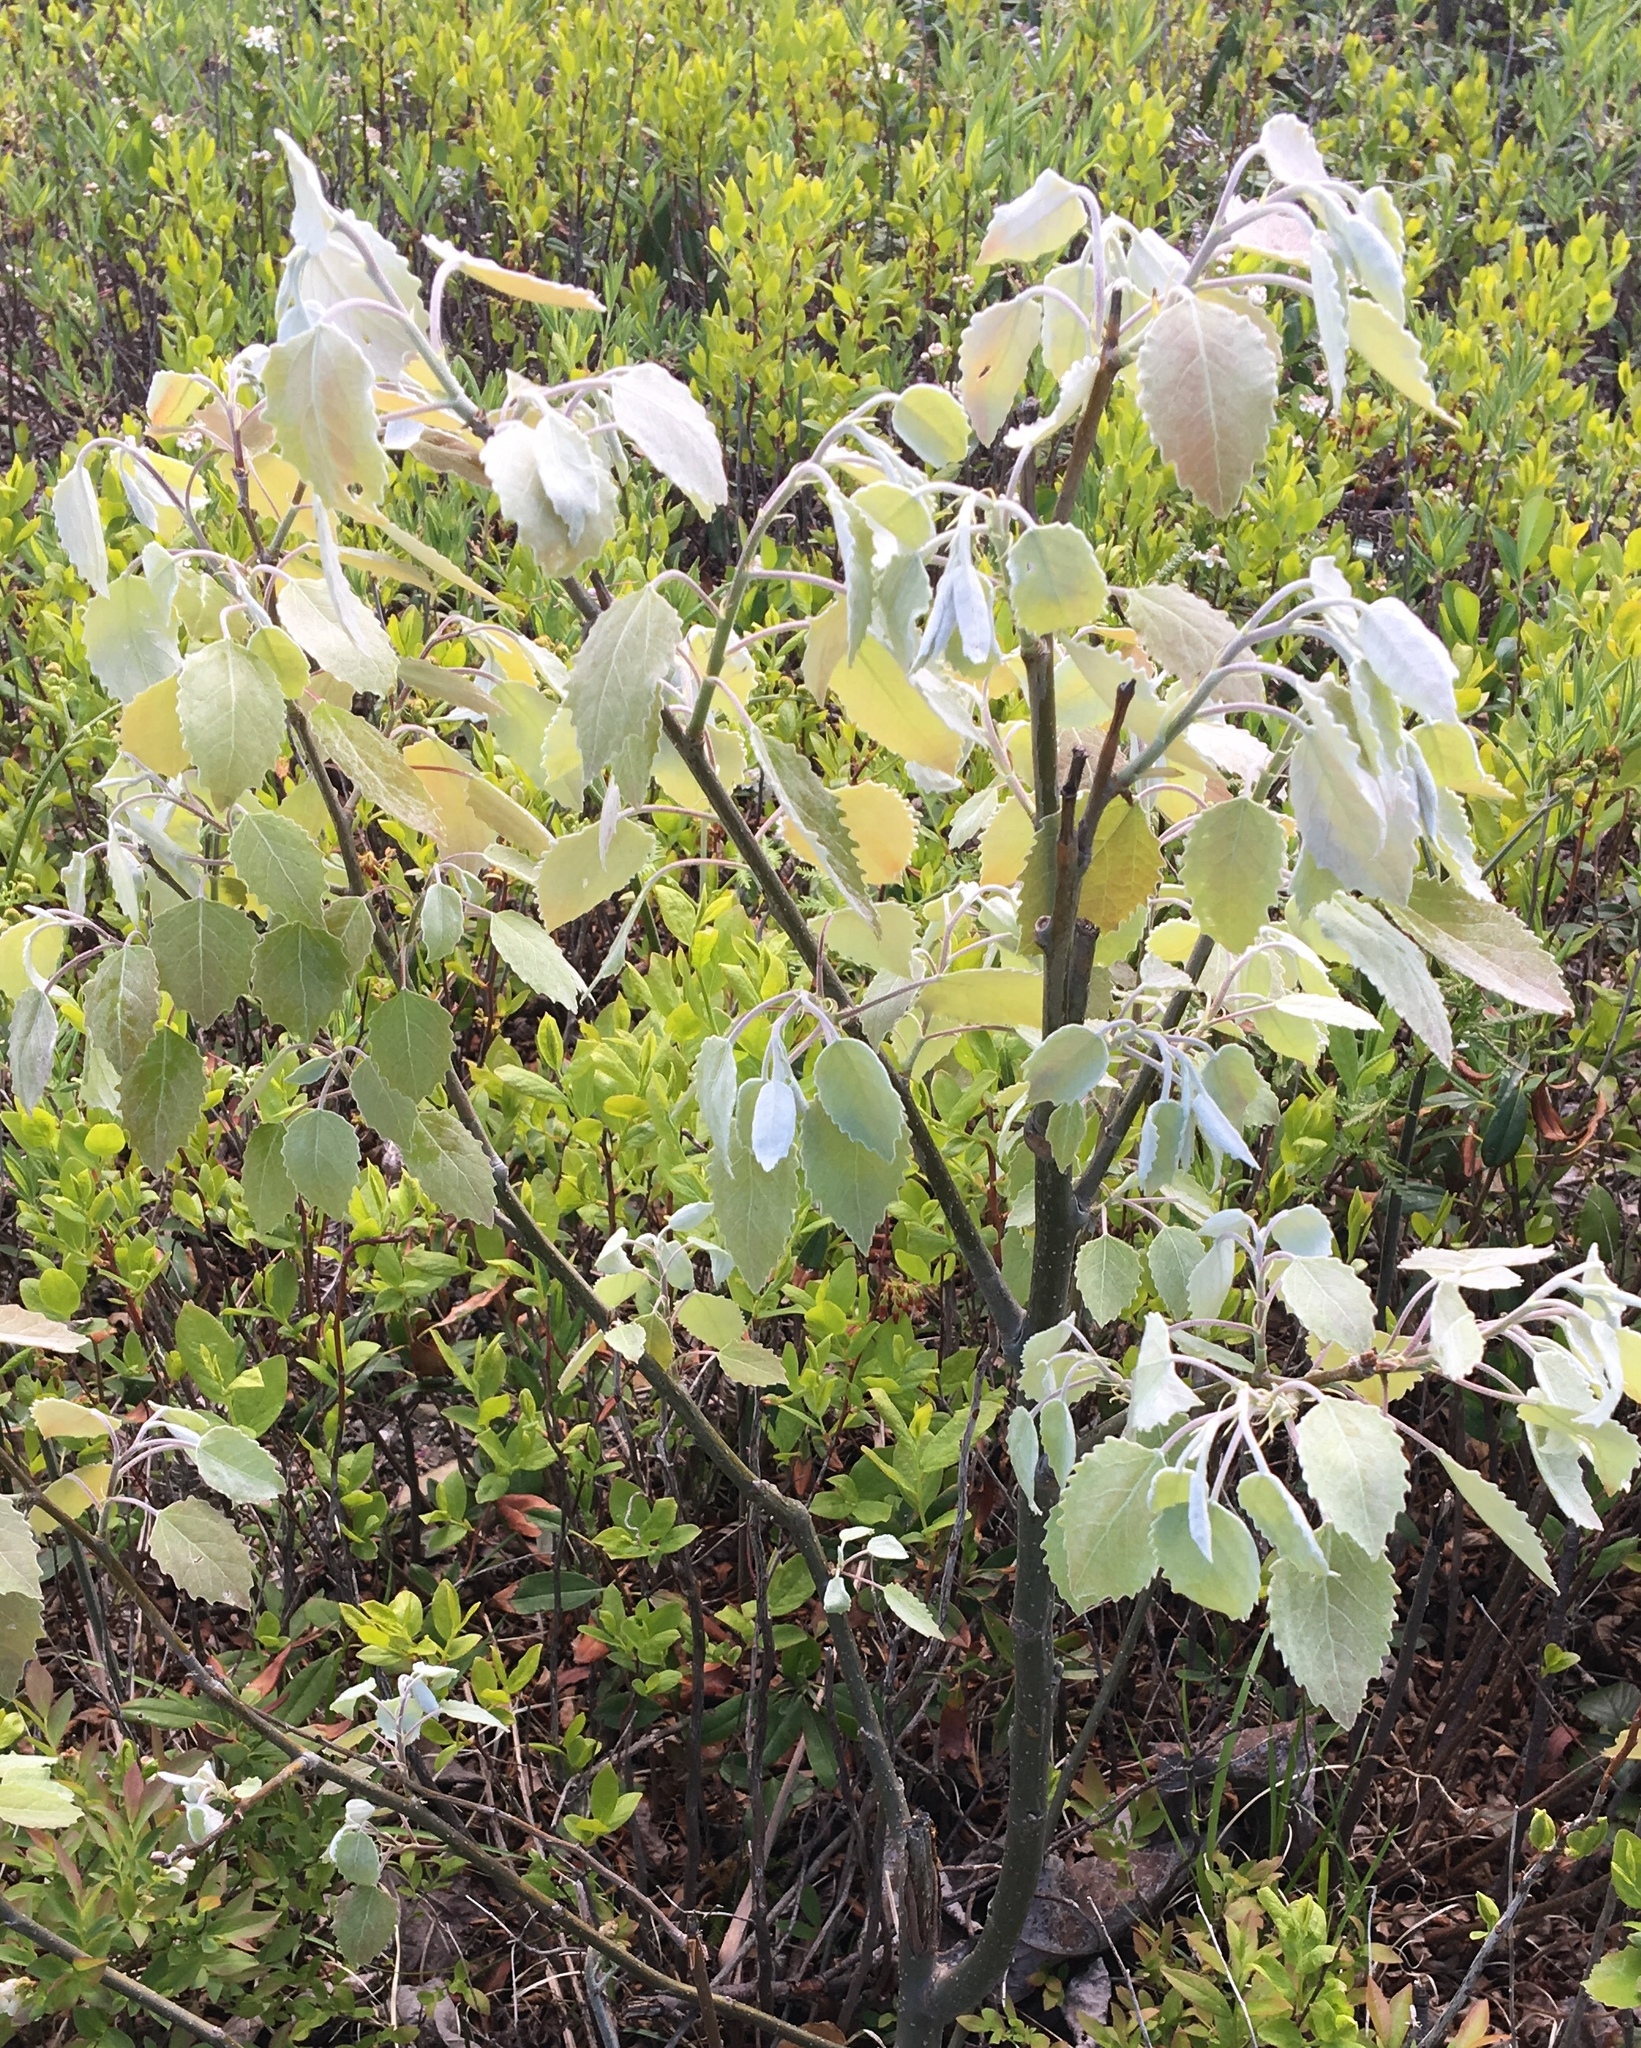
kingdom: Plantae
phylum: Tracheophyta
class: Magnoliopsida
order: Malpighiales
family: Salicaceae
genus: Populus
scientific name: Populus grandidentata
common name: Bigtooth aspen
